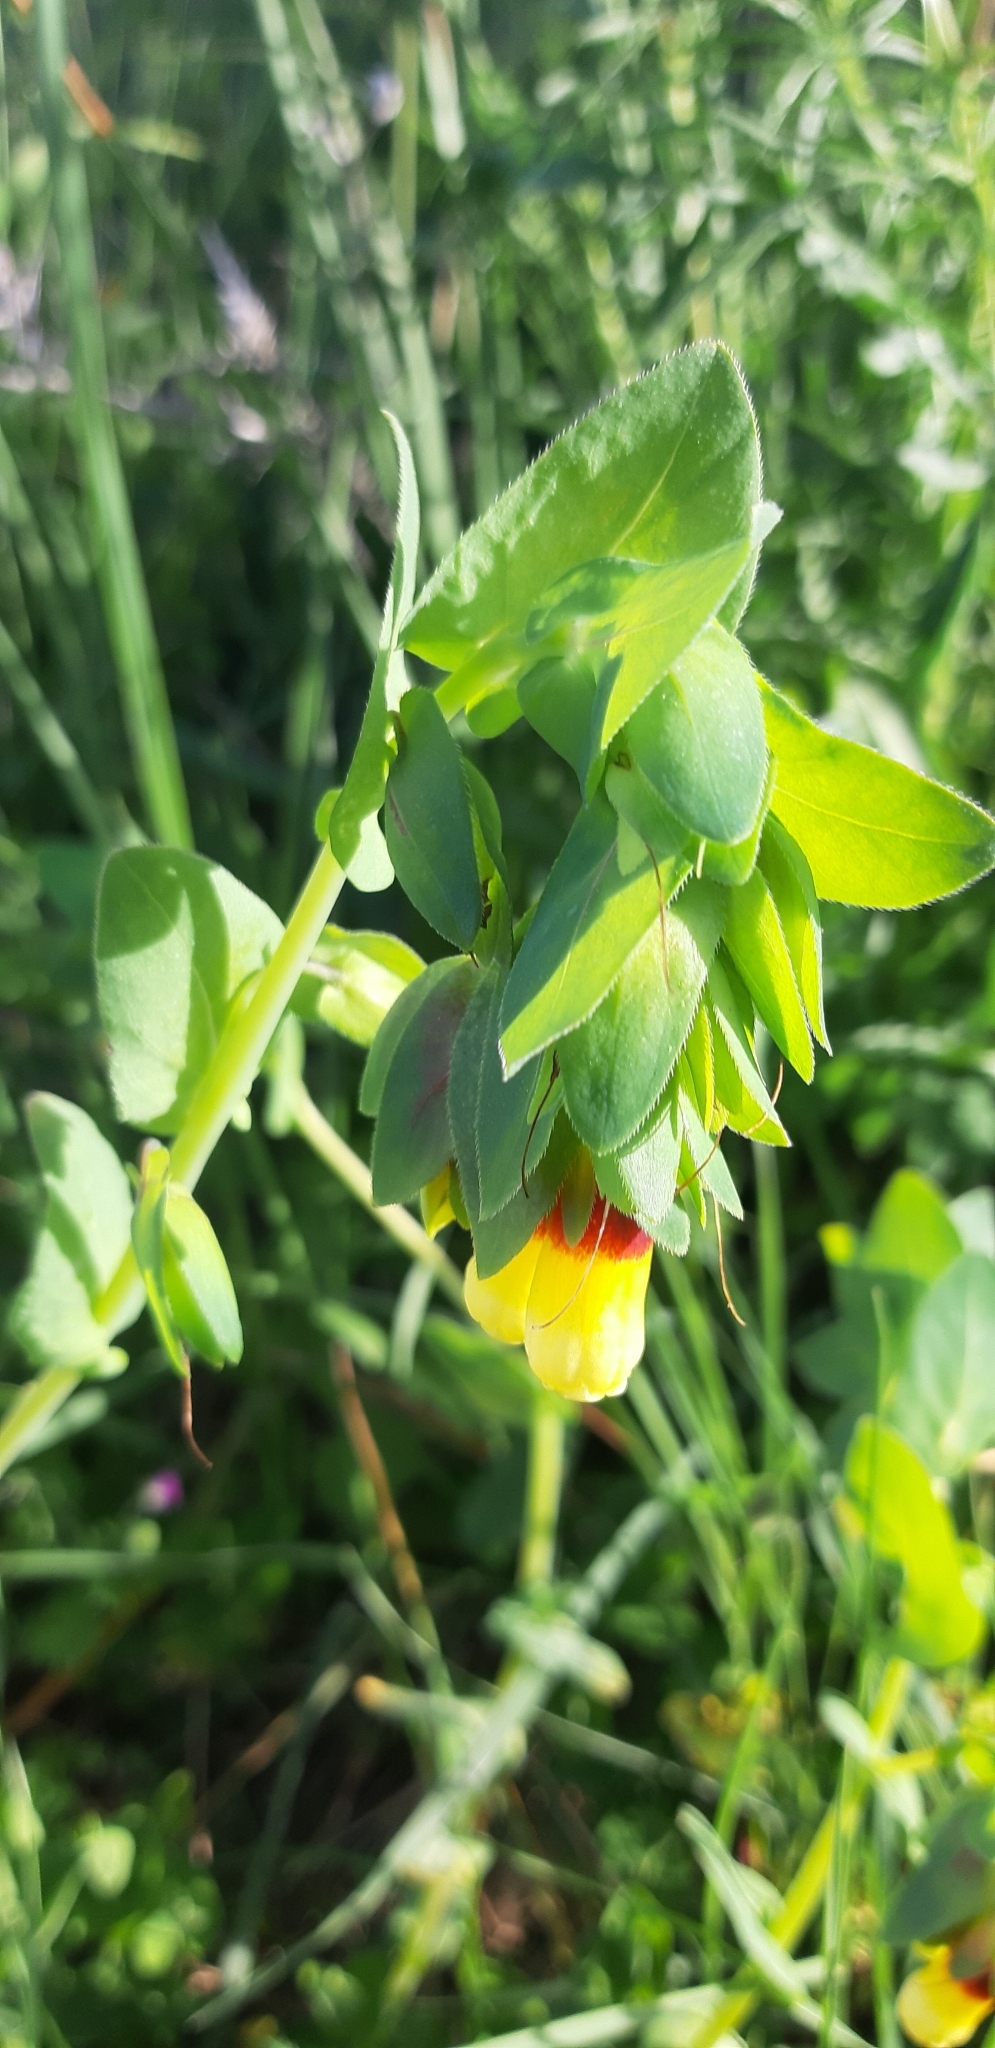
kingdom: Plantae
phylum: Tracheophyta
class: Magnoliopsida
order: Boraginales
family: Boraginaceae
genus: Cerinthe
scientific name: Cerinthe major
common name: Greater honeywort
